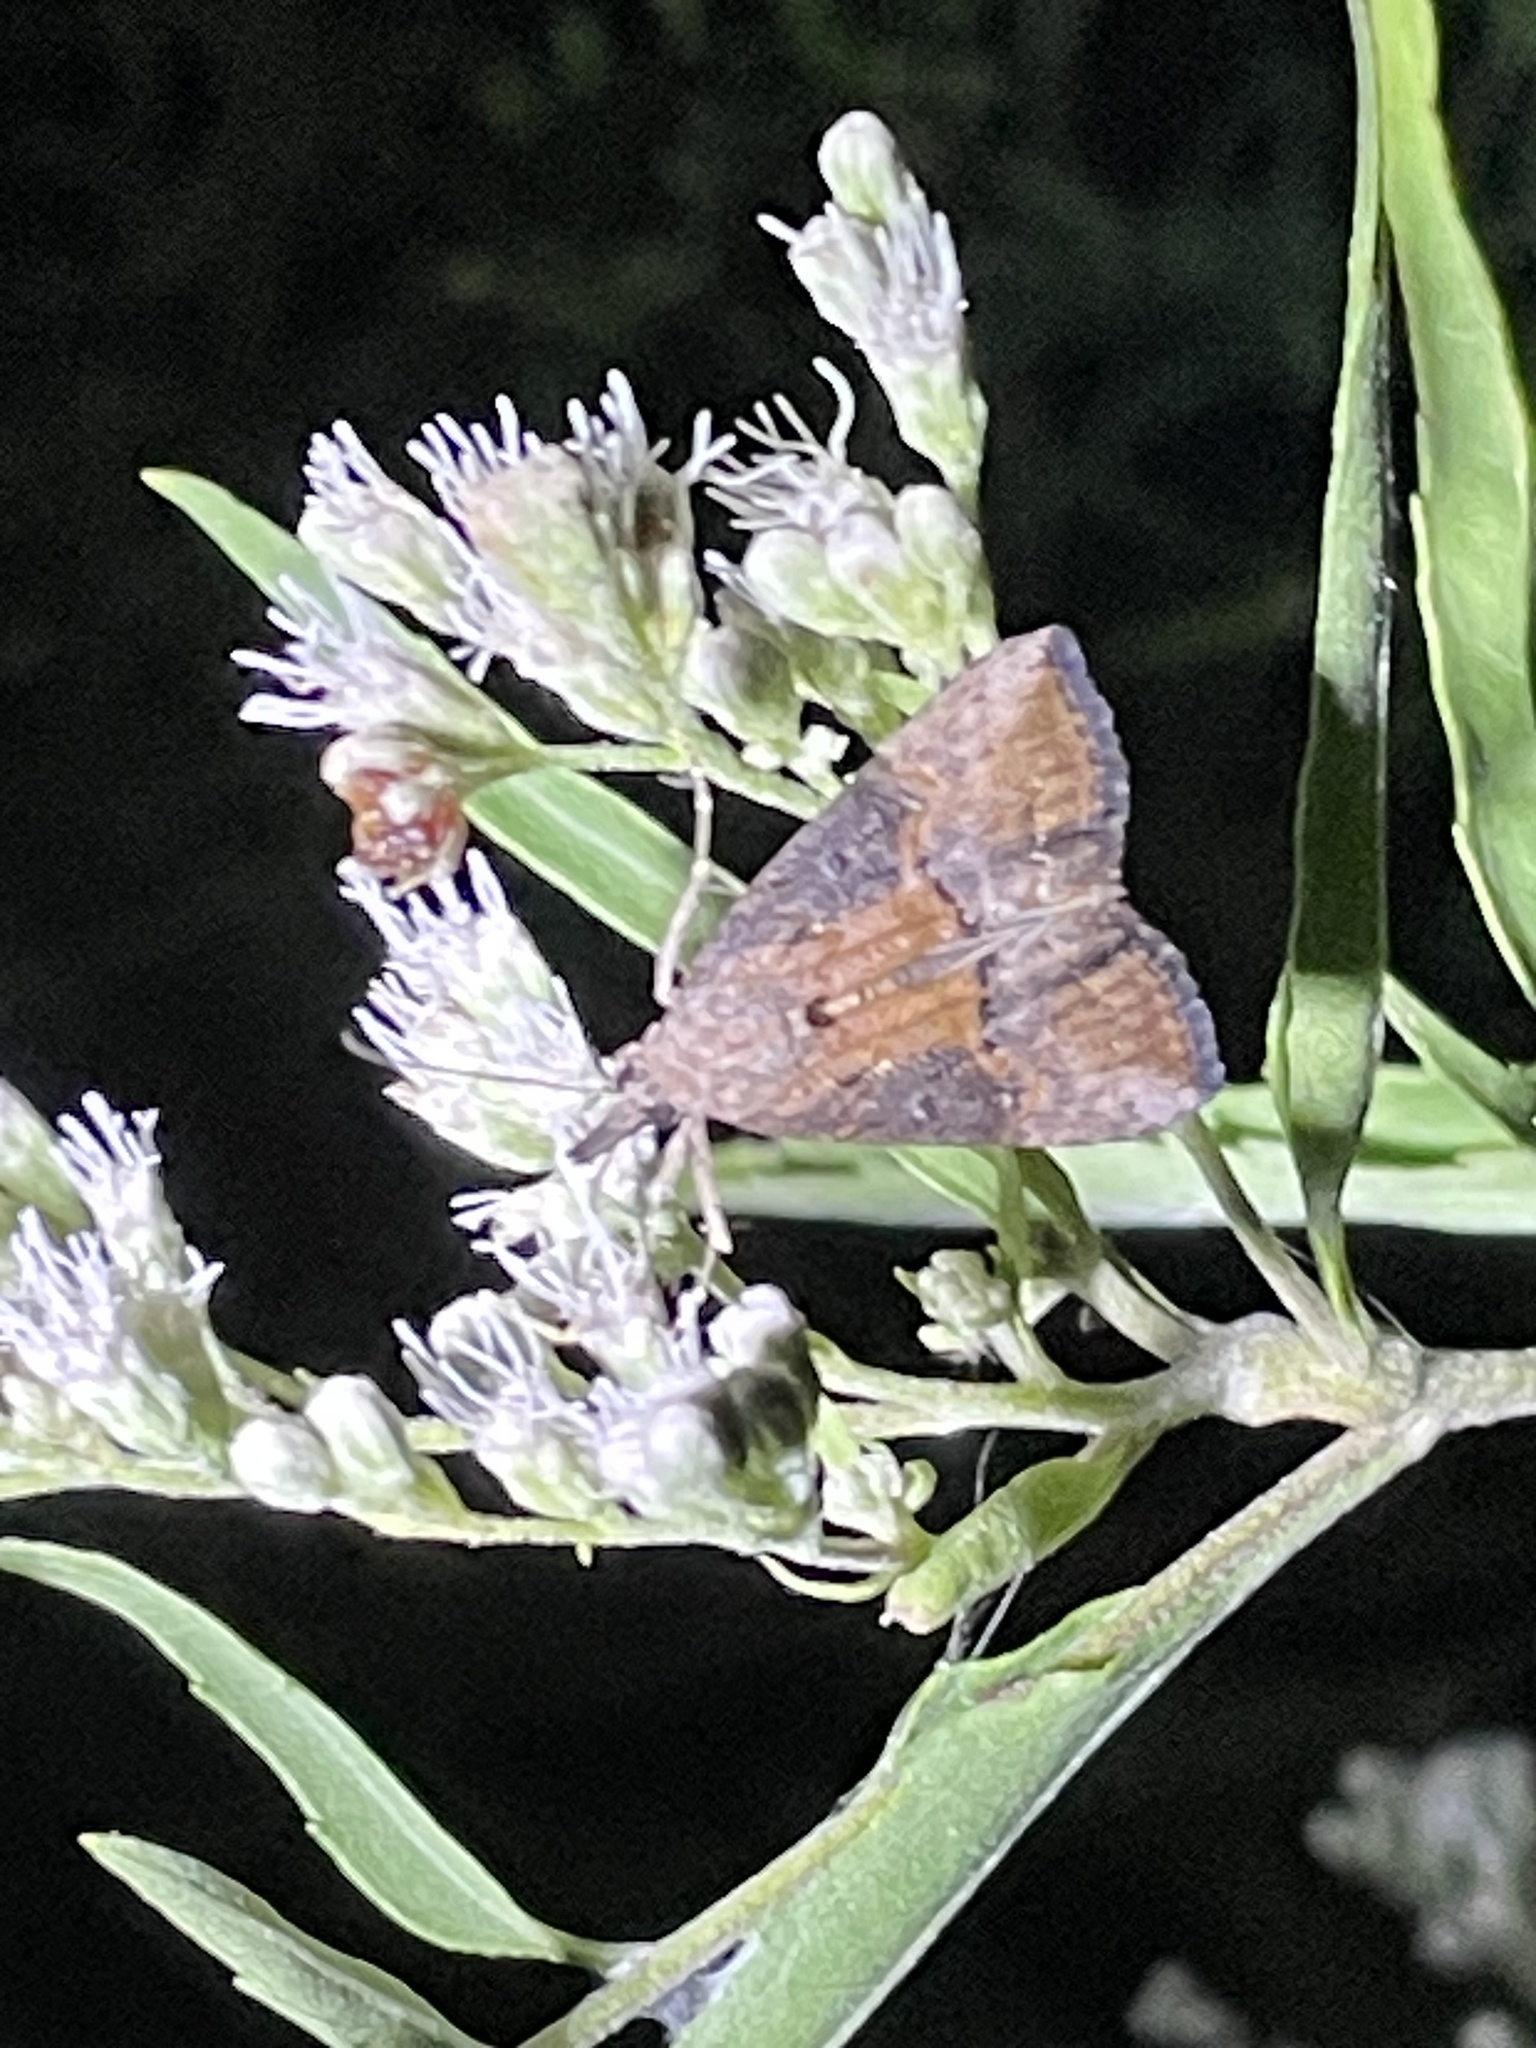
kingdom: Animalia
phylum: Arthropoda
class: Insecta
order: Lepidoptera
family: Erebidae
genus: Hypena
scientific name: Hypena scabra
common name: Green cloverworm
